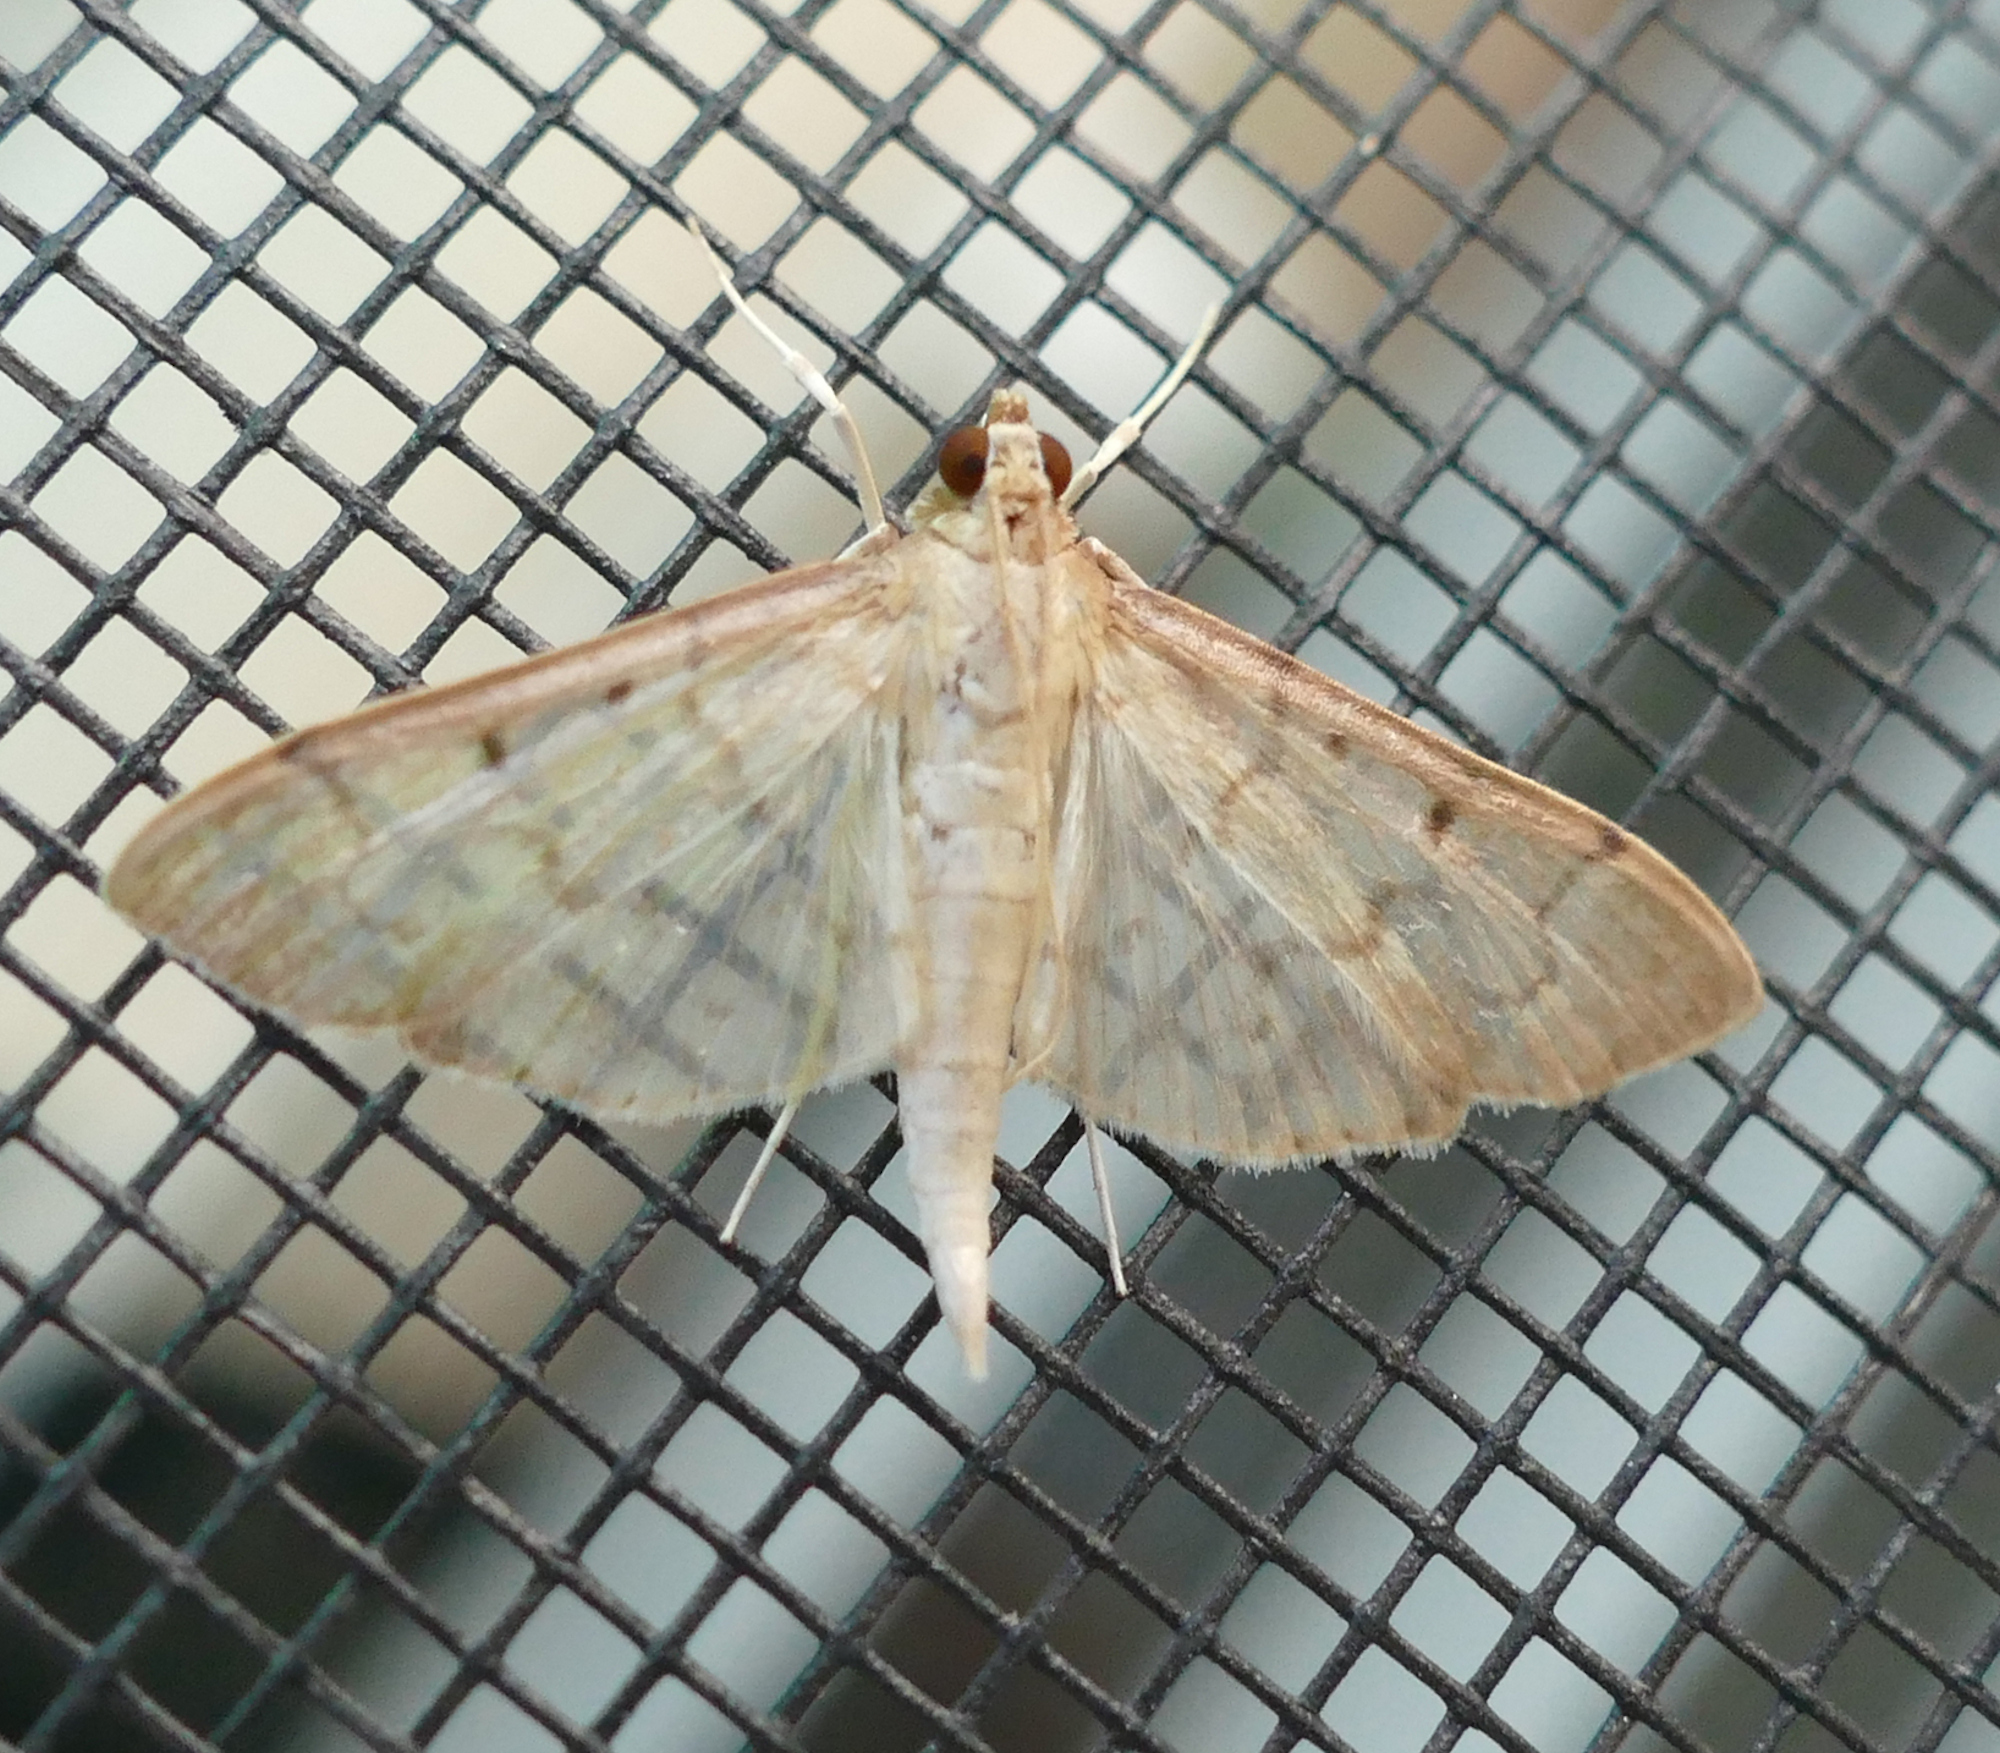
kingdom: Animalia
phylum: Arthropoda
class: Insecta
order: Lepidoptera
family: Crambidae
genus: Herpetogramma
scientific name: Herpetogramma bipunctalis
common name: Southern beet webworm
